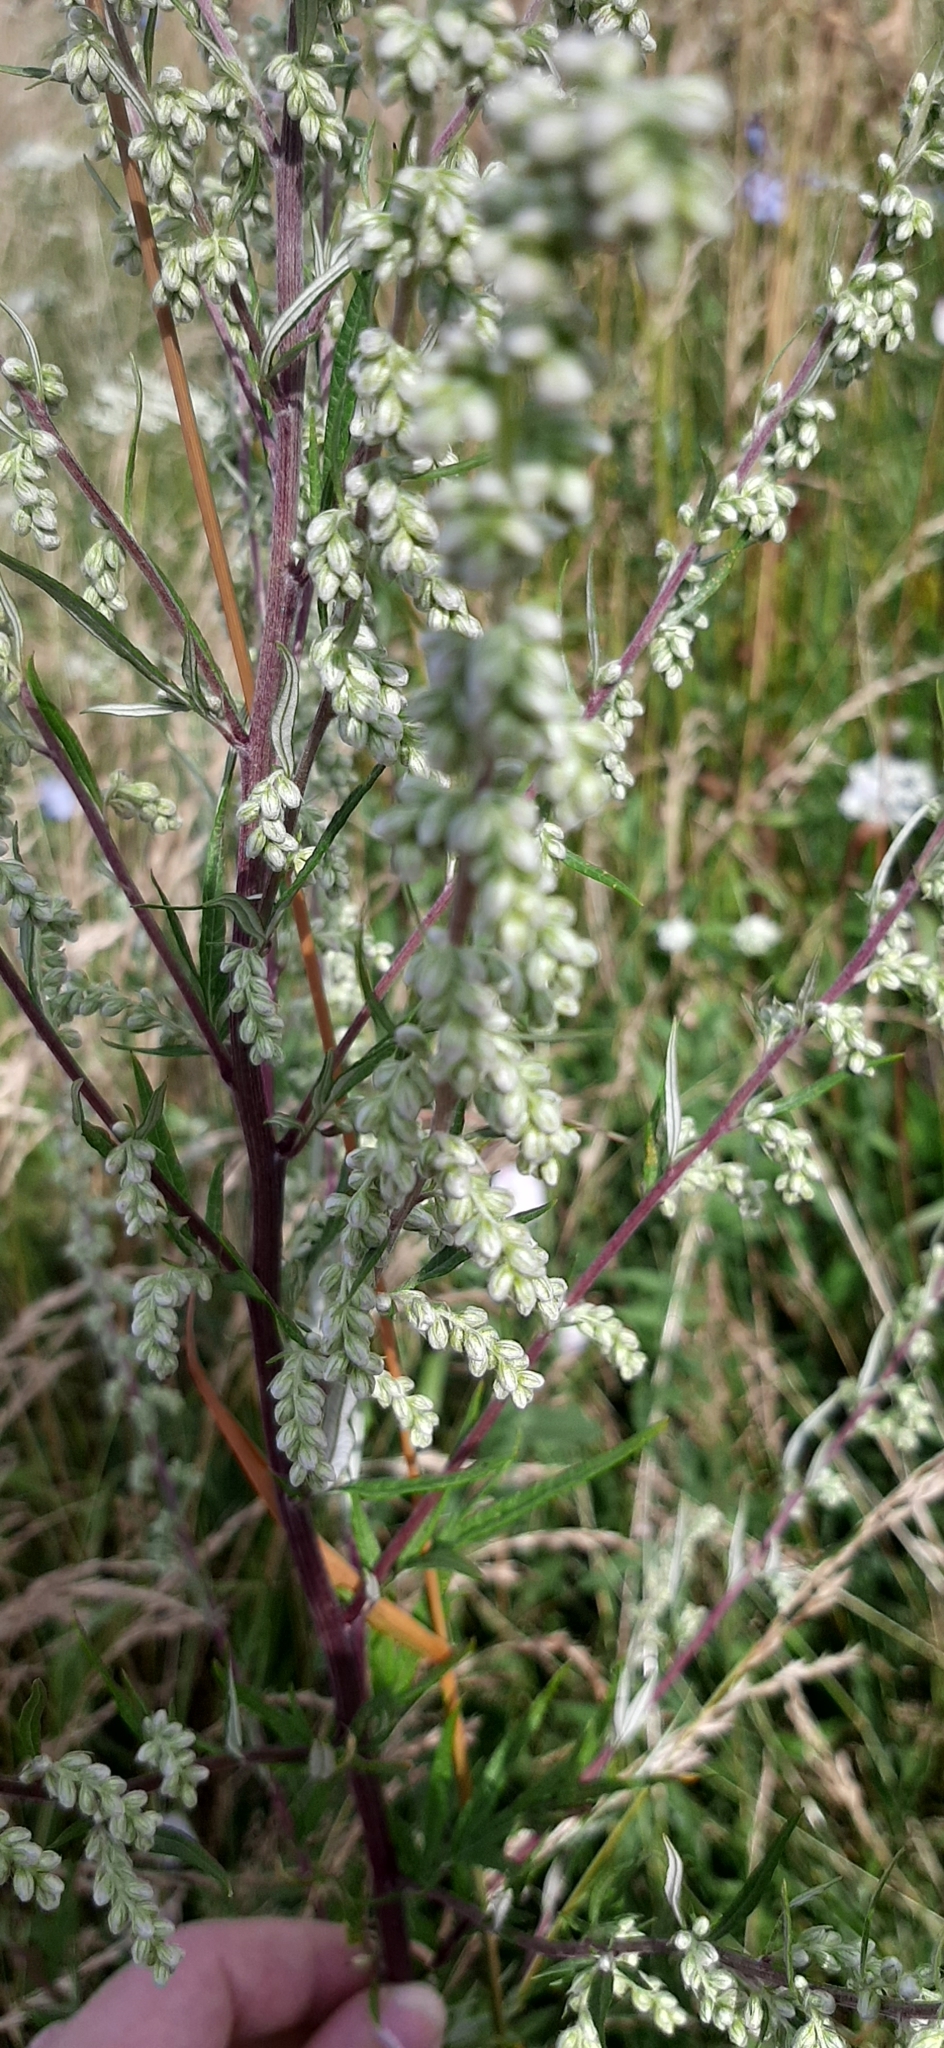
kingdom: Plantae
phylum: Tracheophyta
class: Magnoliopsida
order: Asterales
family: Asteraceae
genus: Artemisia
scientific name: Artemisia vulgaris
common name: Mugwort
